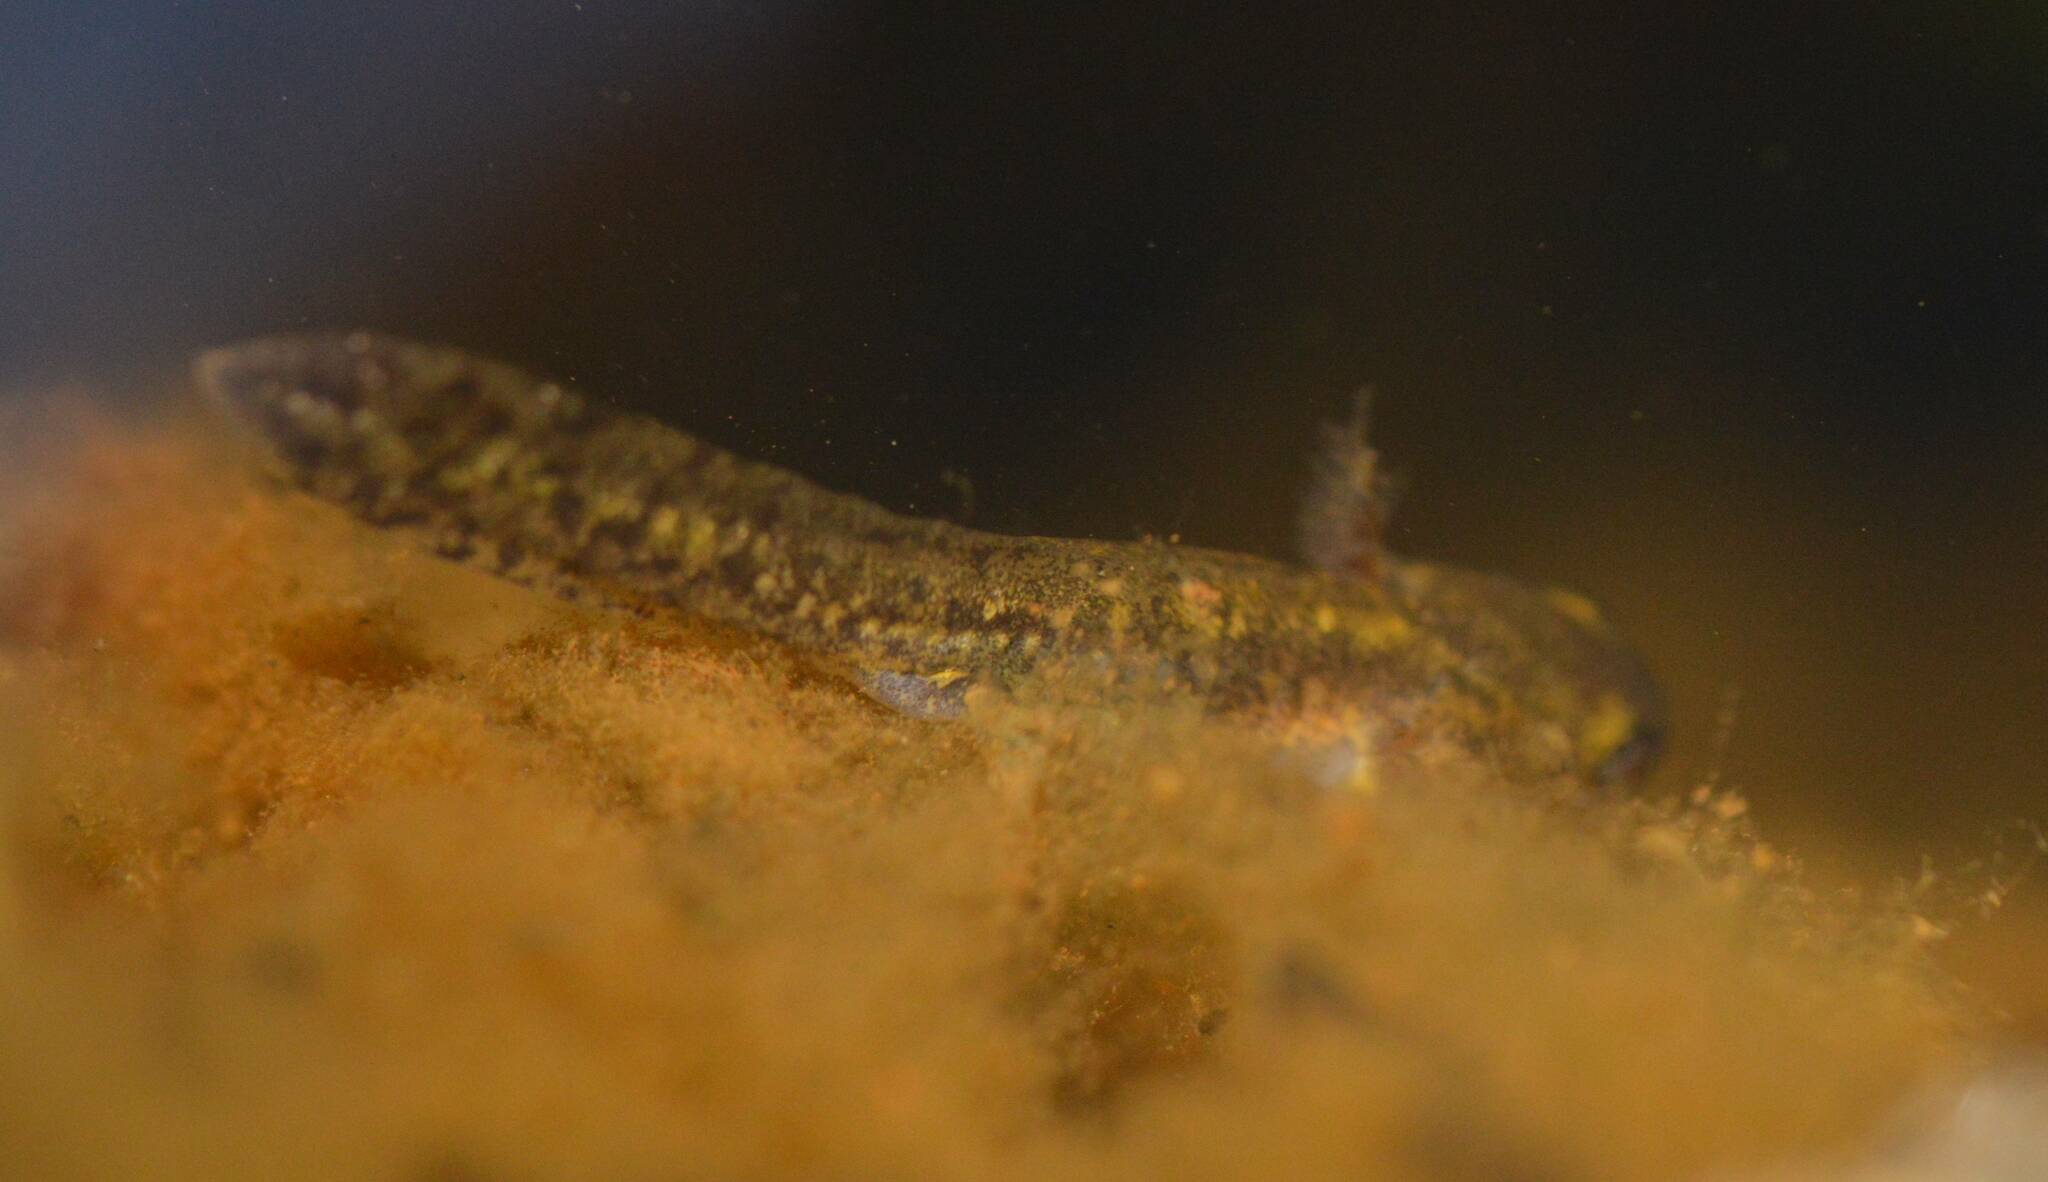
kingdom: Animalia
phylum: Chordata
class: Amphibia
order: Caudata
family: Salamandridae
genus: Salamandra
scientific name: Salamandra algira
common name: North african fire salamander
